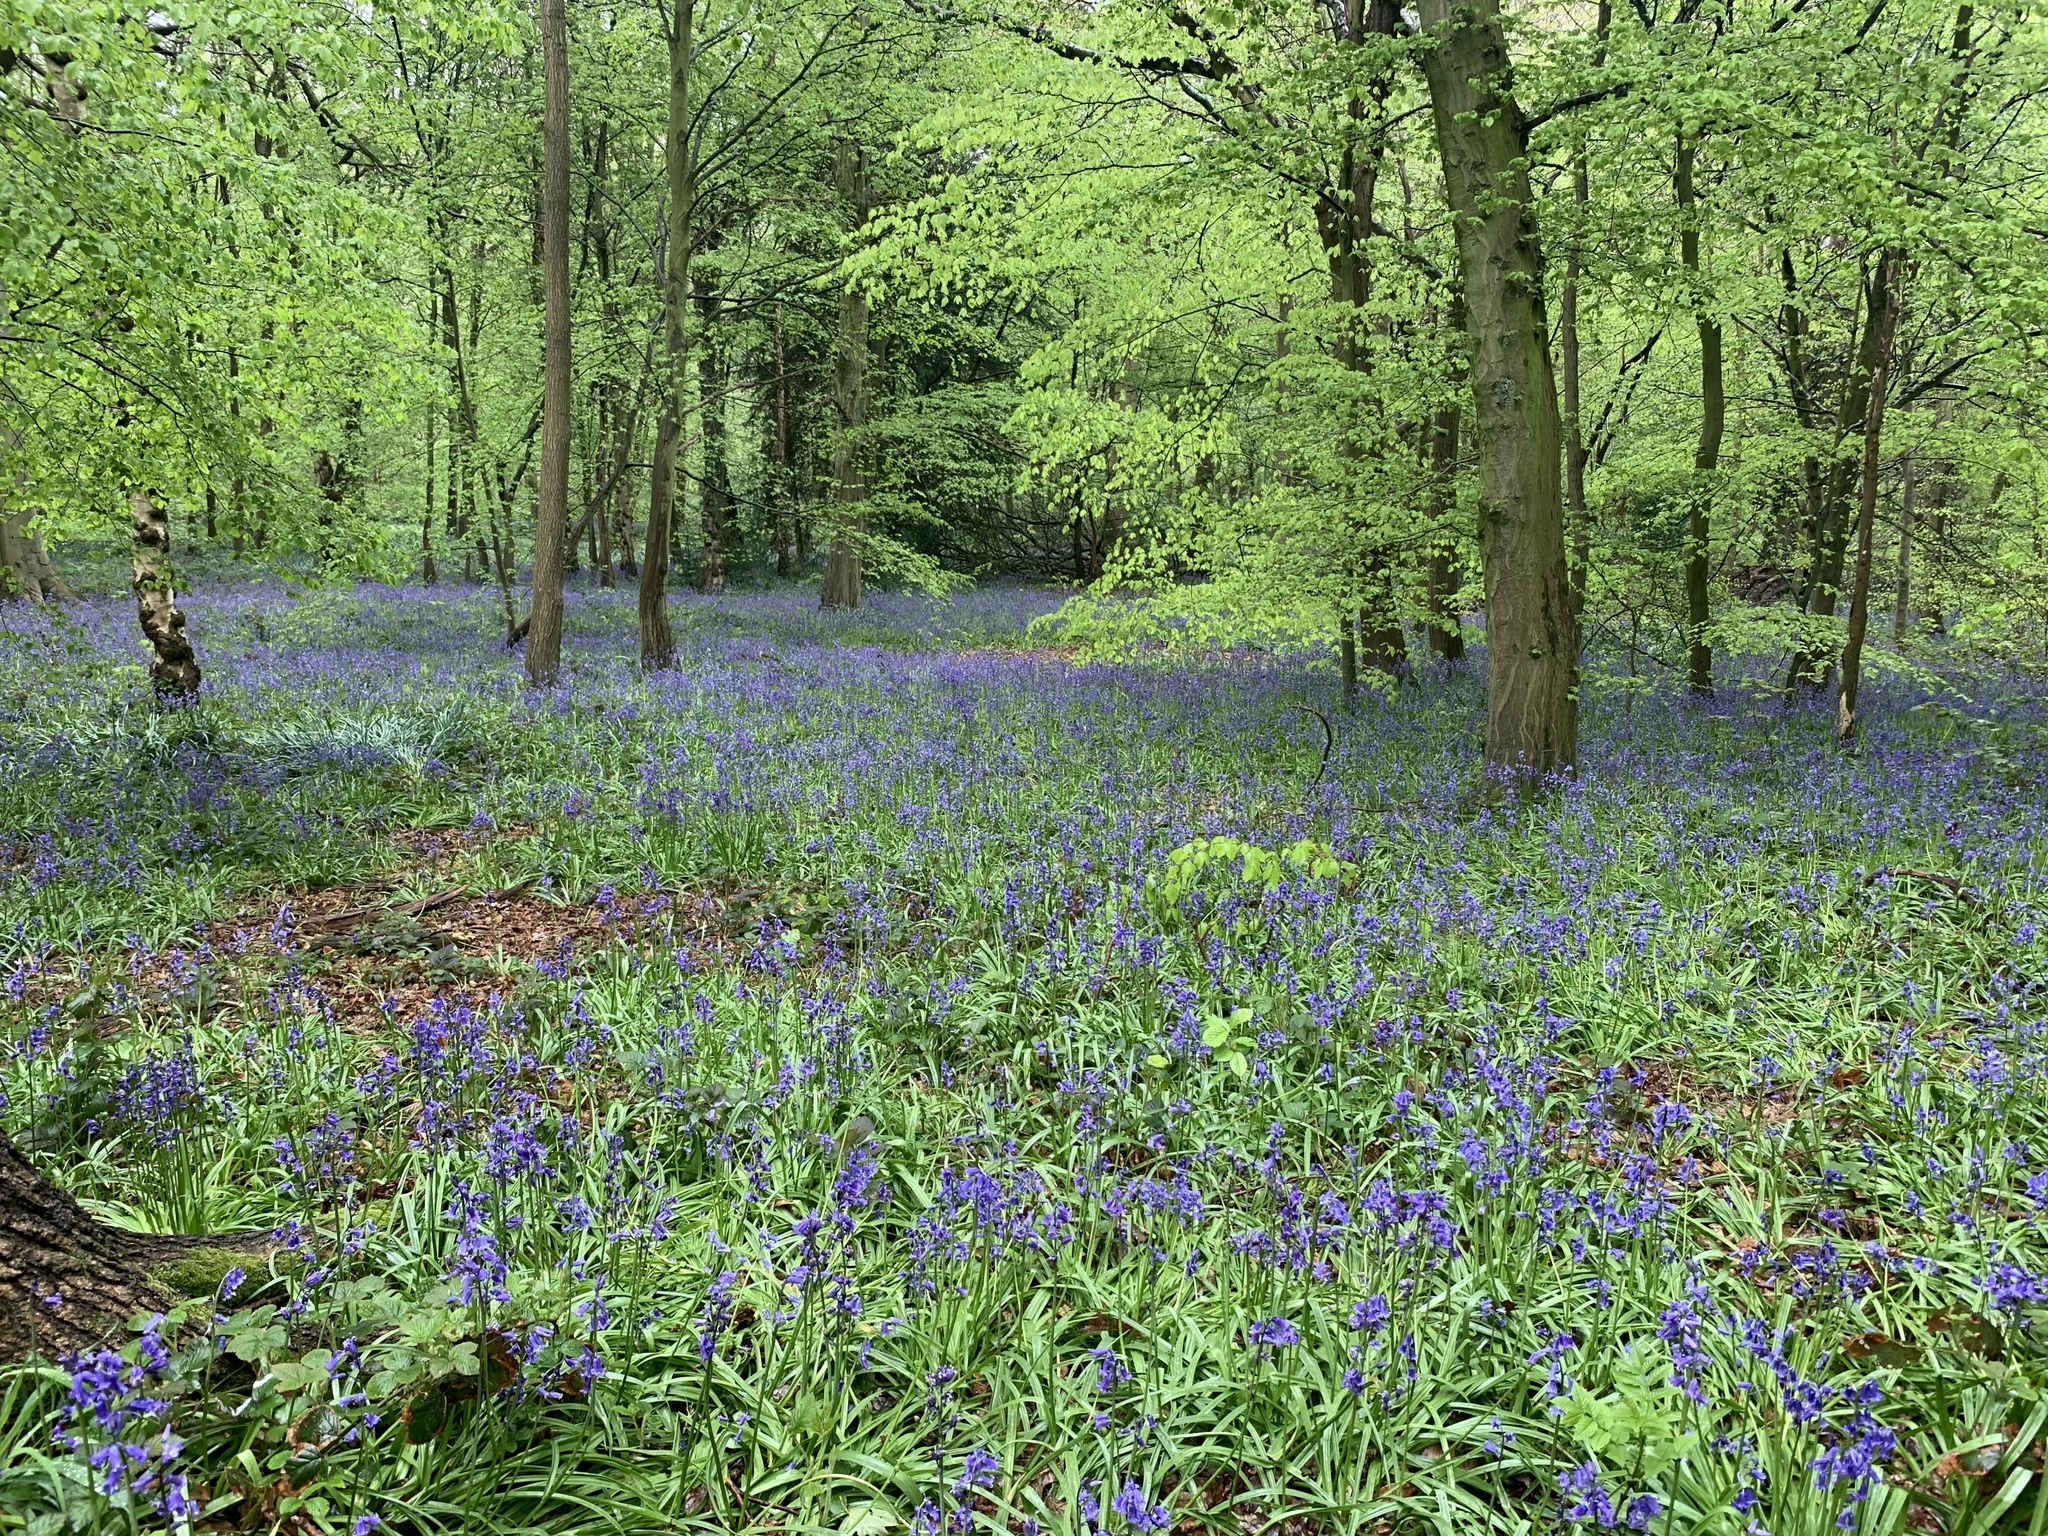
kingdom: Plantae
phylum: Tracheophyta
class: Liliopsida
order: Asparagales
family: Asparagaceae
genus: Hyacinthoides
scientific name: Hyacinthoides non-scripta
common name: Bluebell
